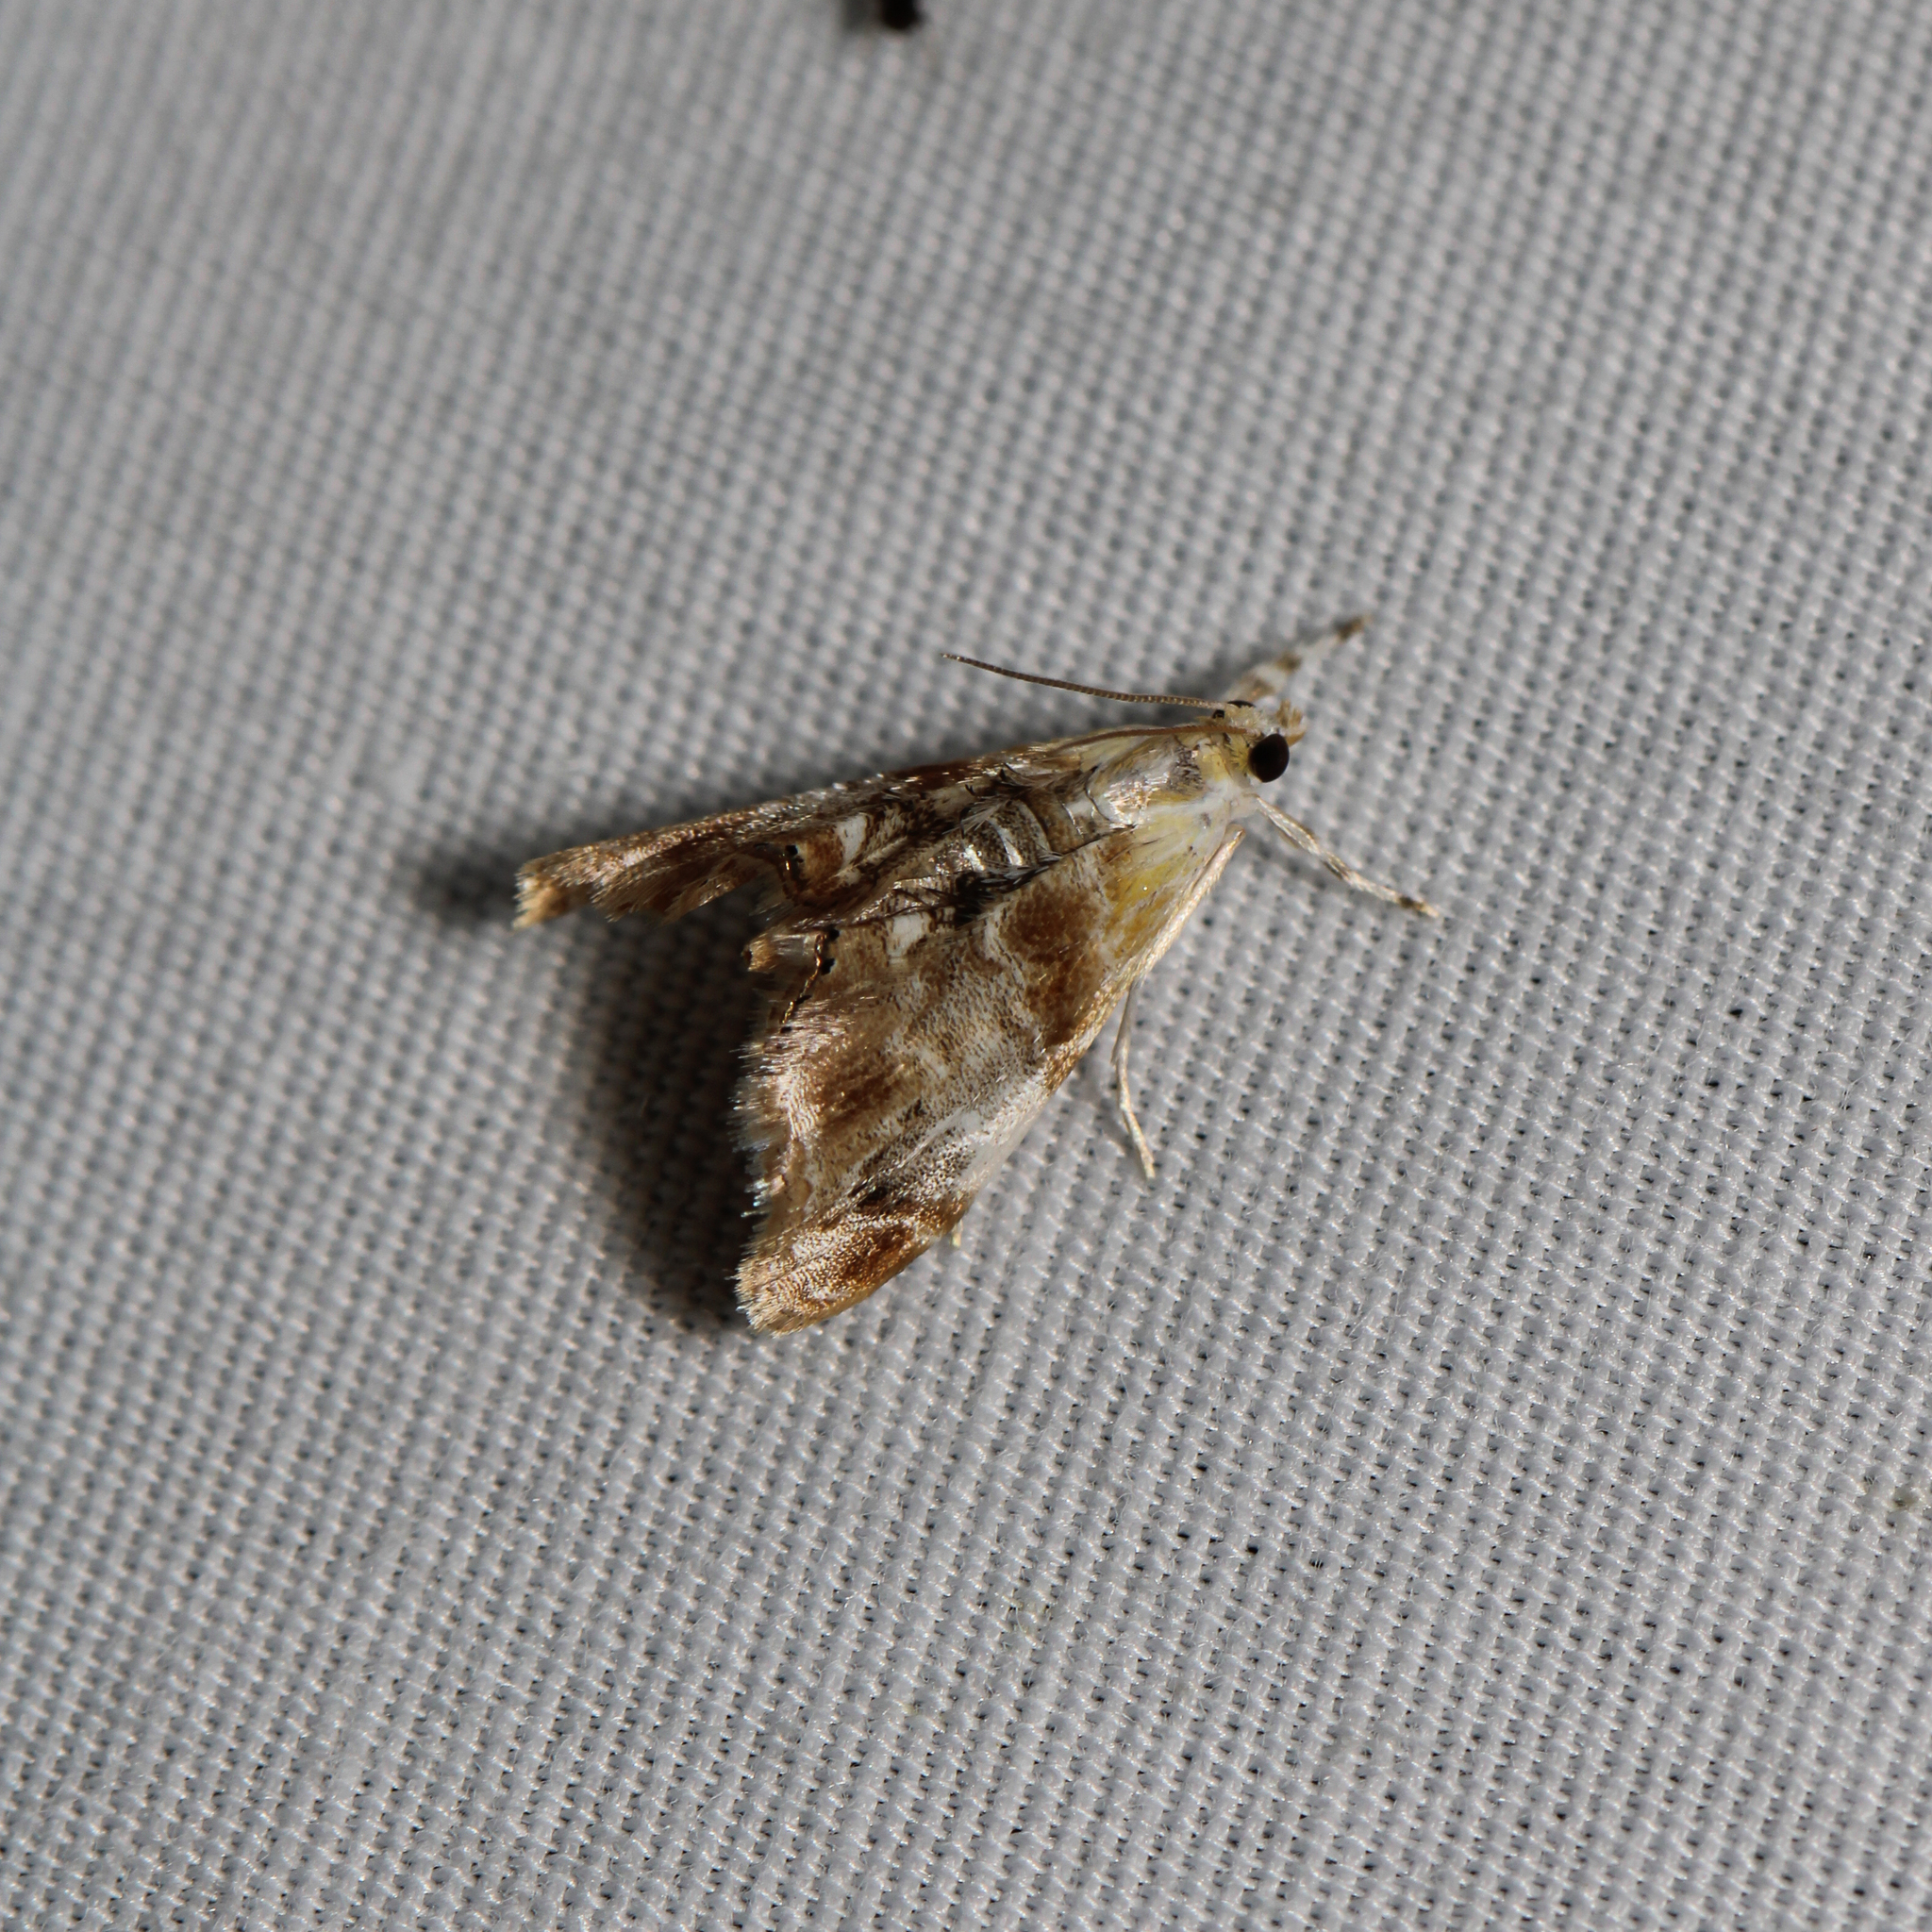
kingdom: Animalia
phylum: Arthropoda
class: Insecta
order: Lepidoptera
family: Crambidae
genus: Dicymolomia
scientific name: Dicymolomia julianalis
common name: Julia's dicymolomia moth
